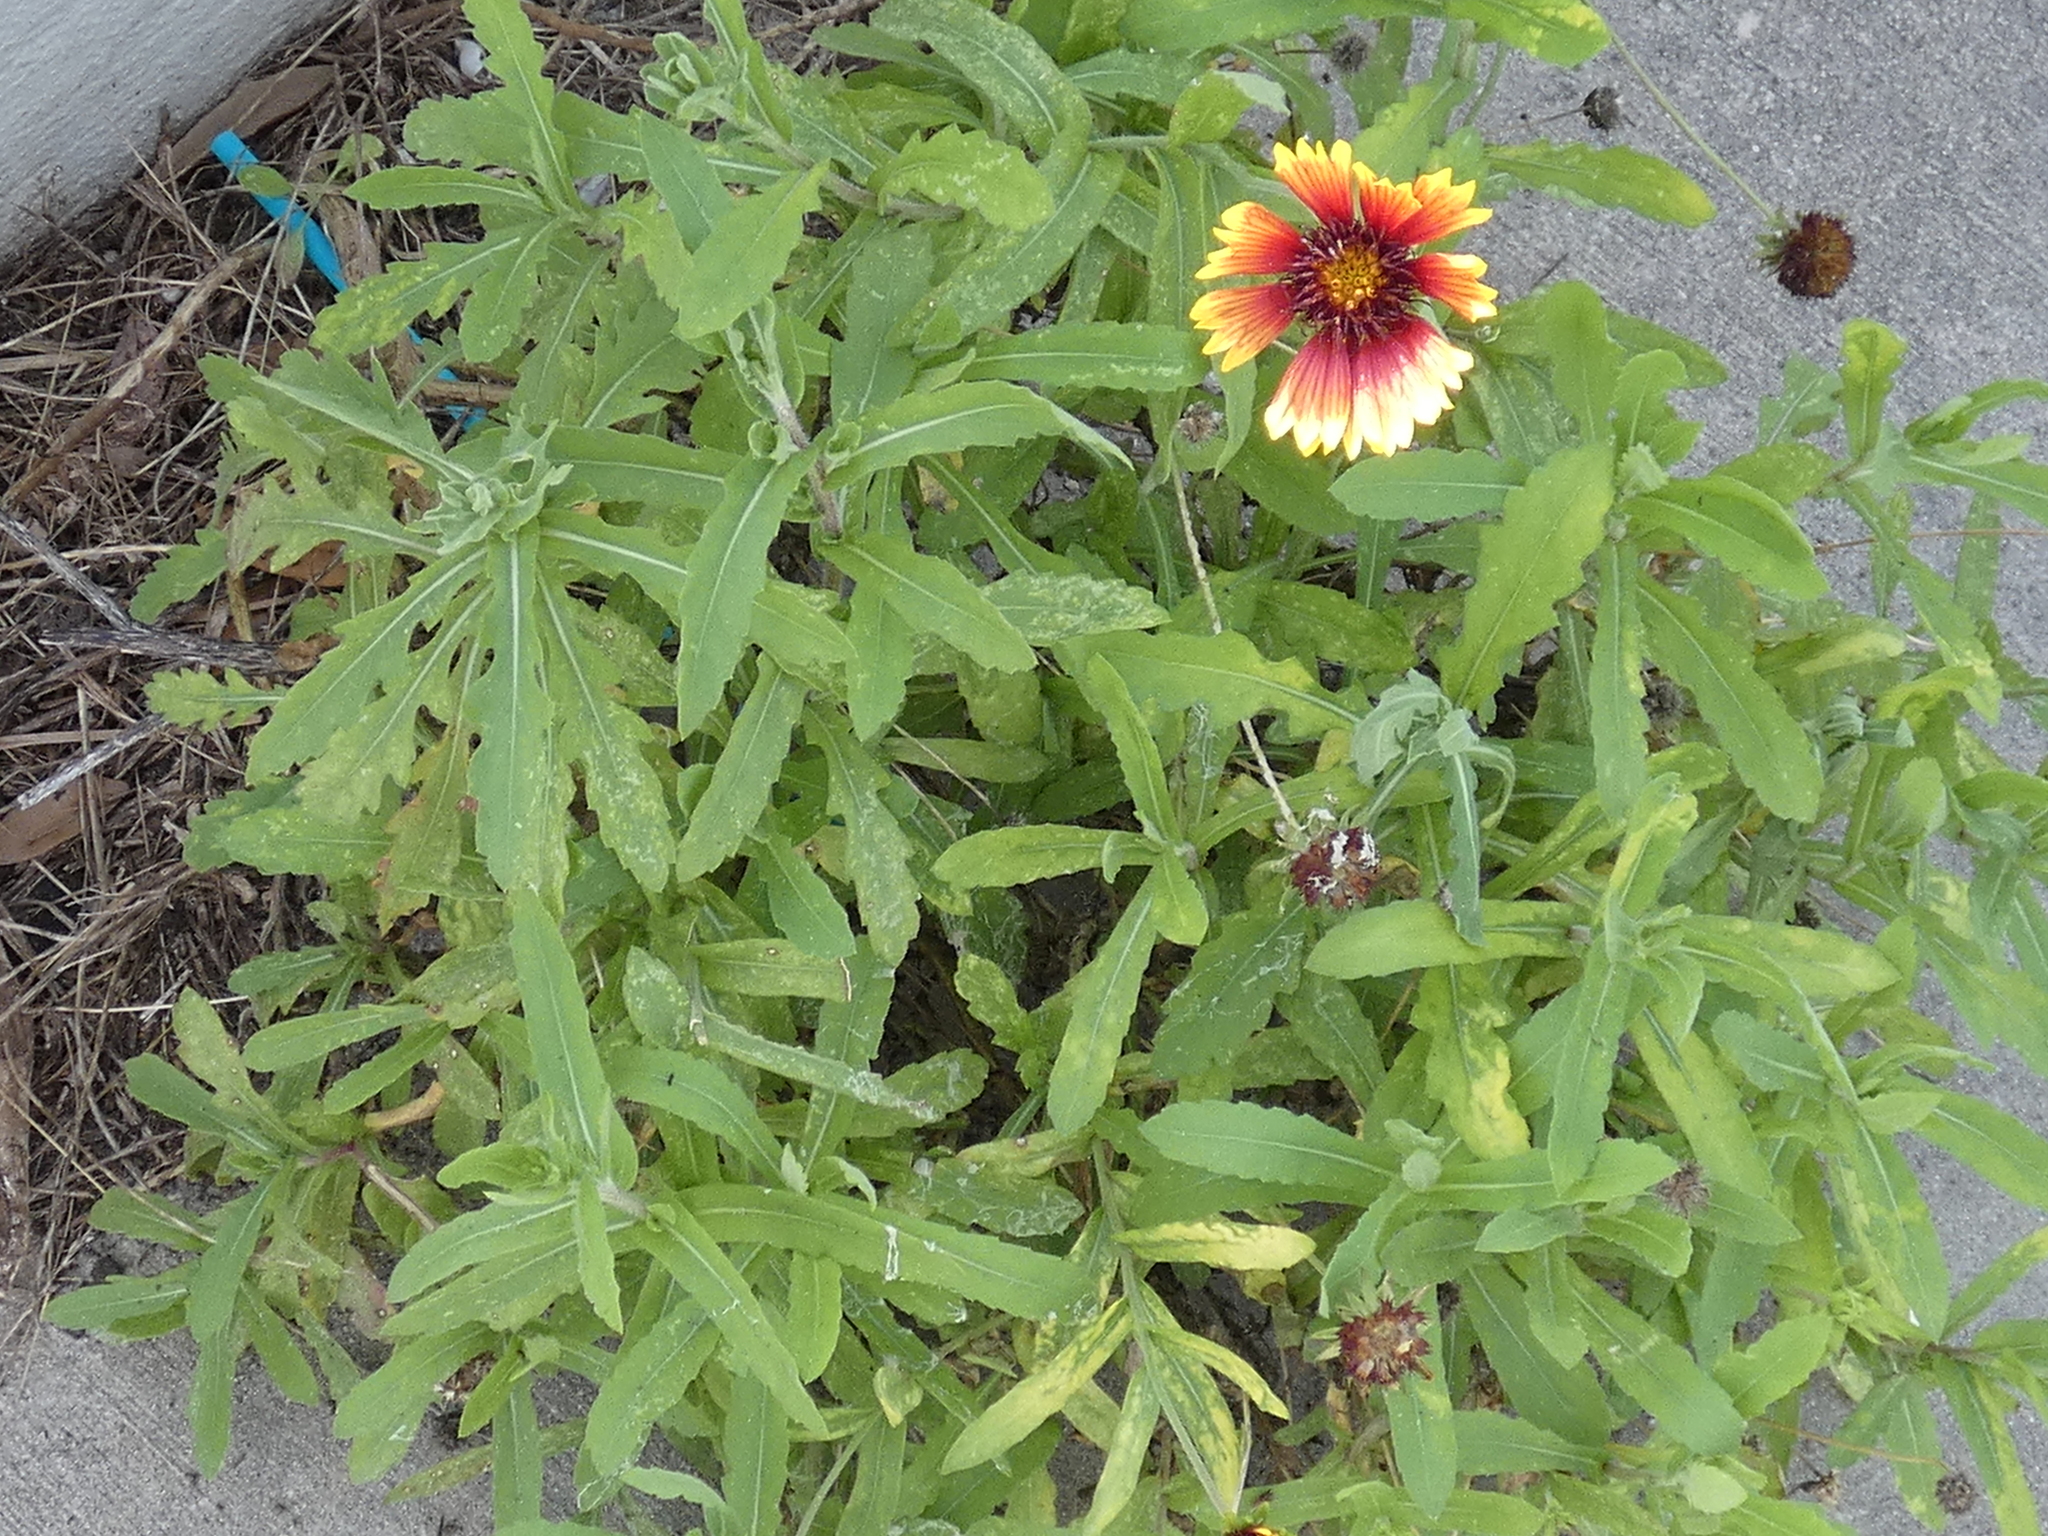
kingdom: Plantae
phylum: Tracheophyta
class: Magnoliopsida
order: Asterales
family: Asteraceae
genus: Gaillardia
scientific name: Gaillardia pulchella
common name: Firewheel
